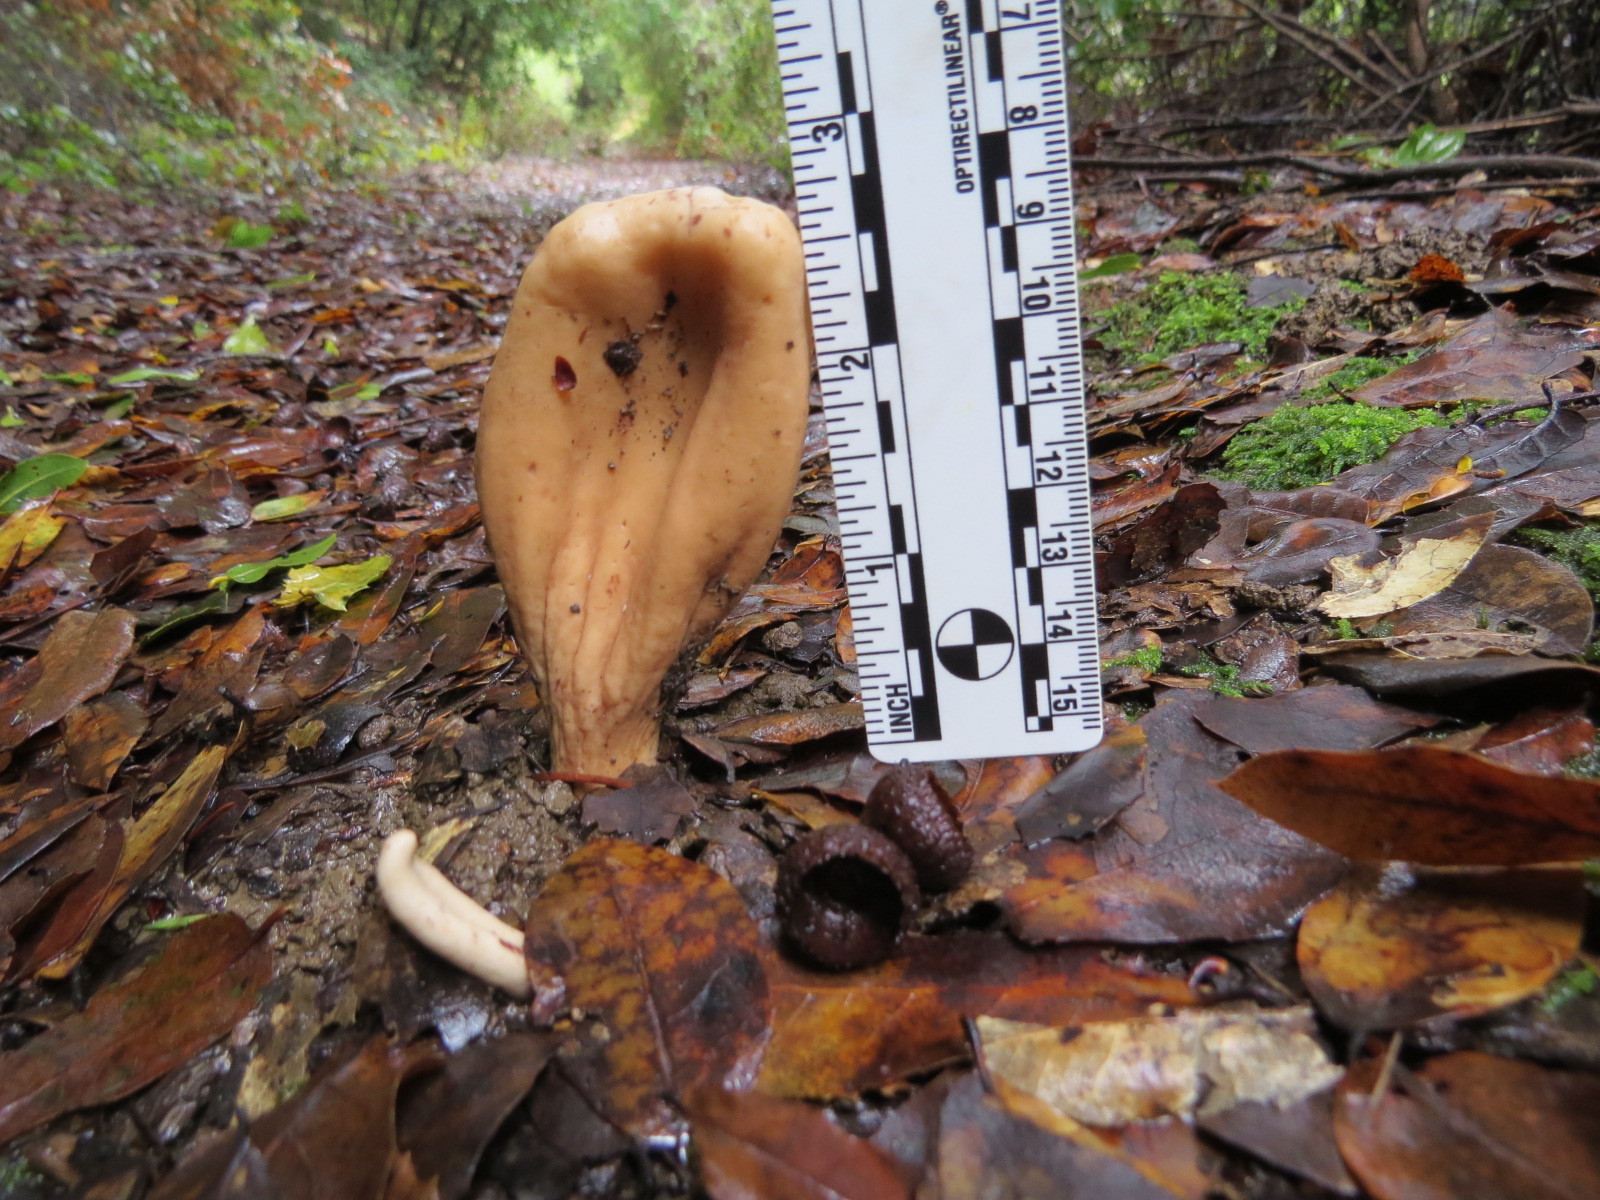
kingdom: Fungi
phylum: Basidiomycota
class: Agaricomycetes
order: Gomphales
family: Clavariadelphaceae
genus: Clavariadelphus
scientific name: Clavariadelphus occidentalis
